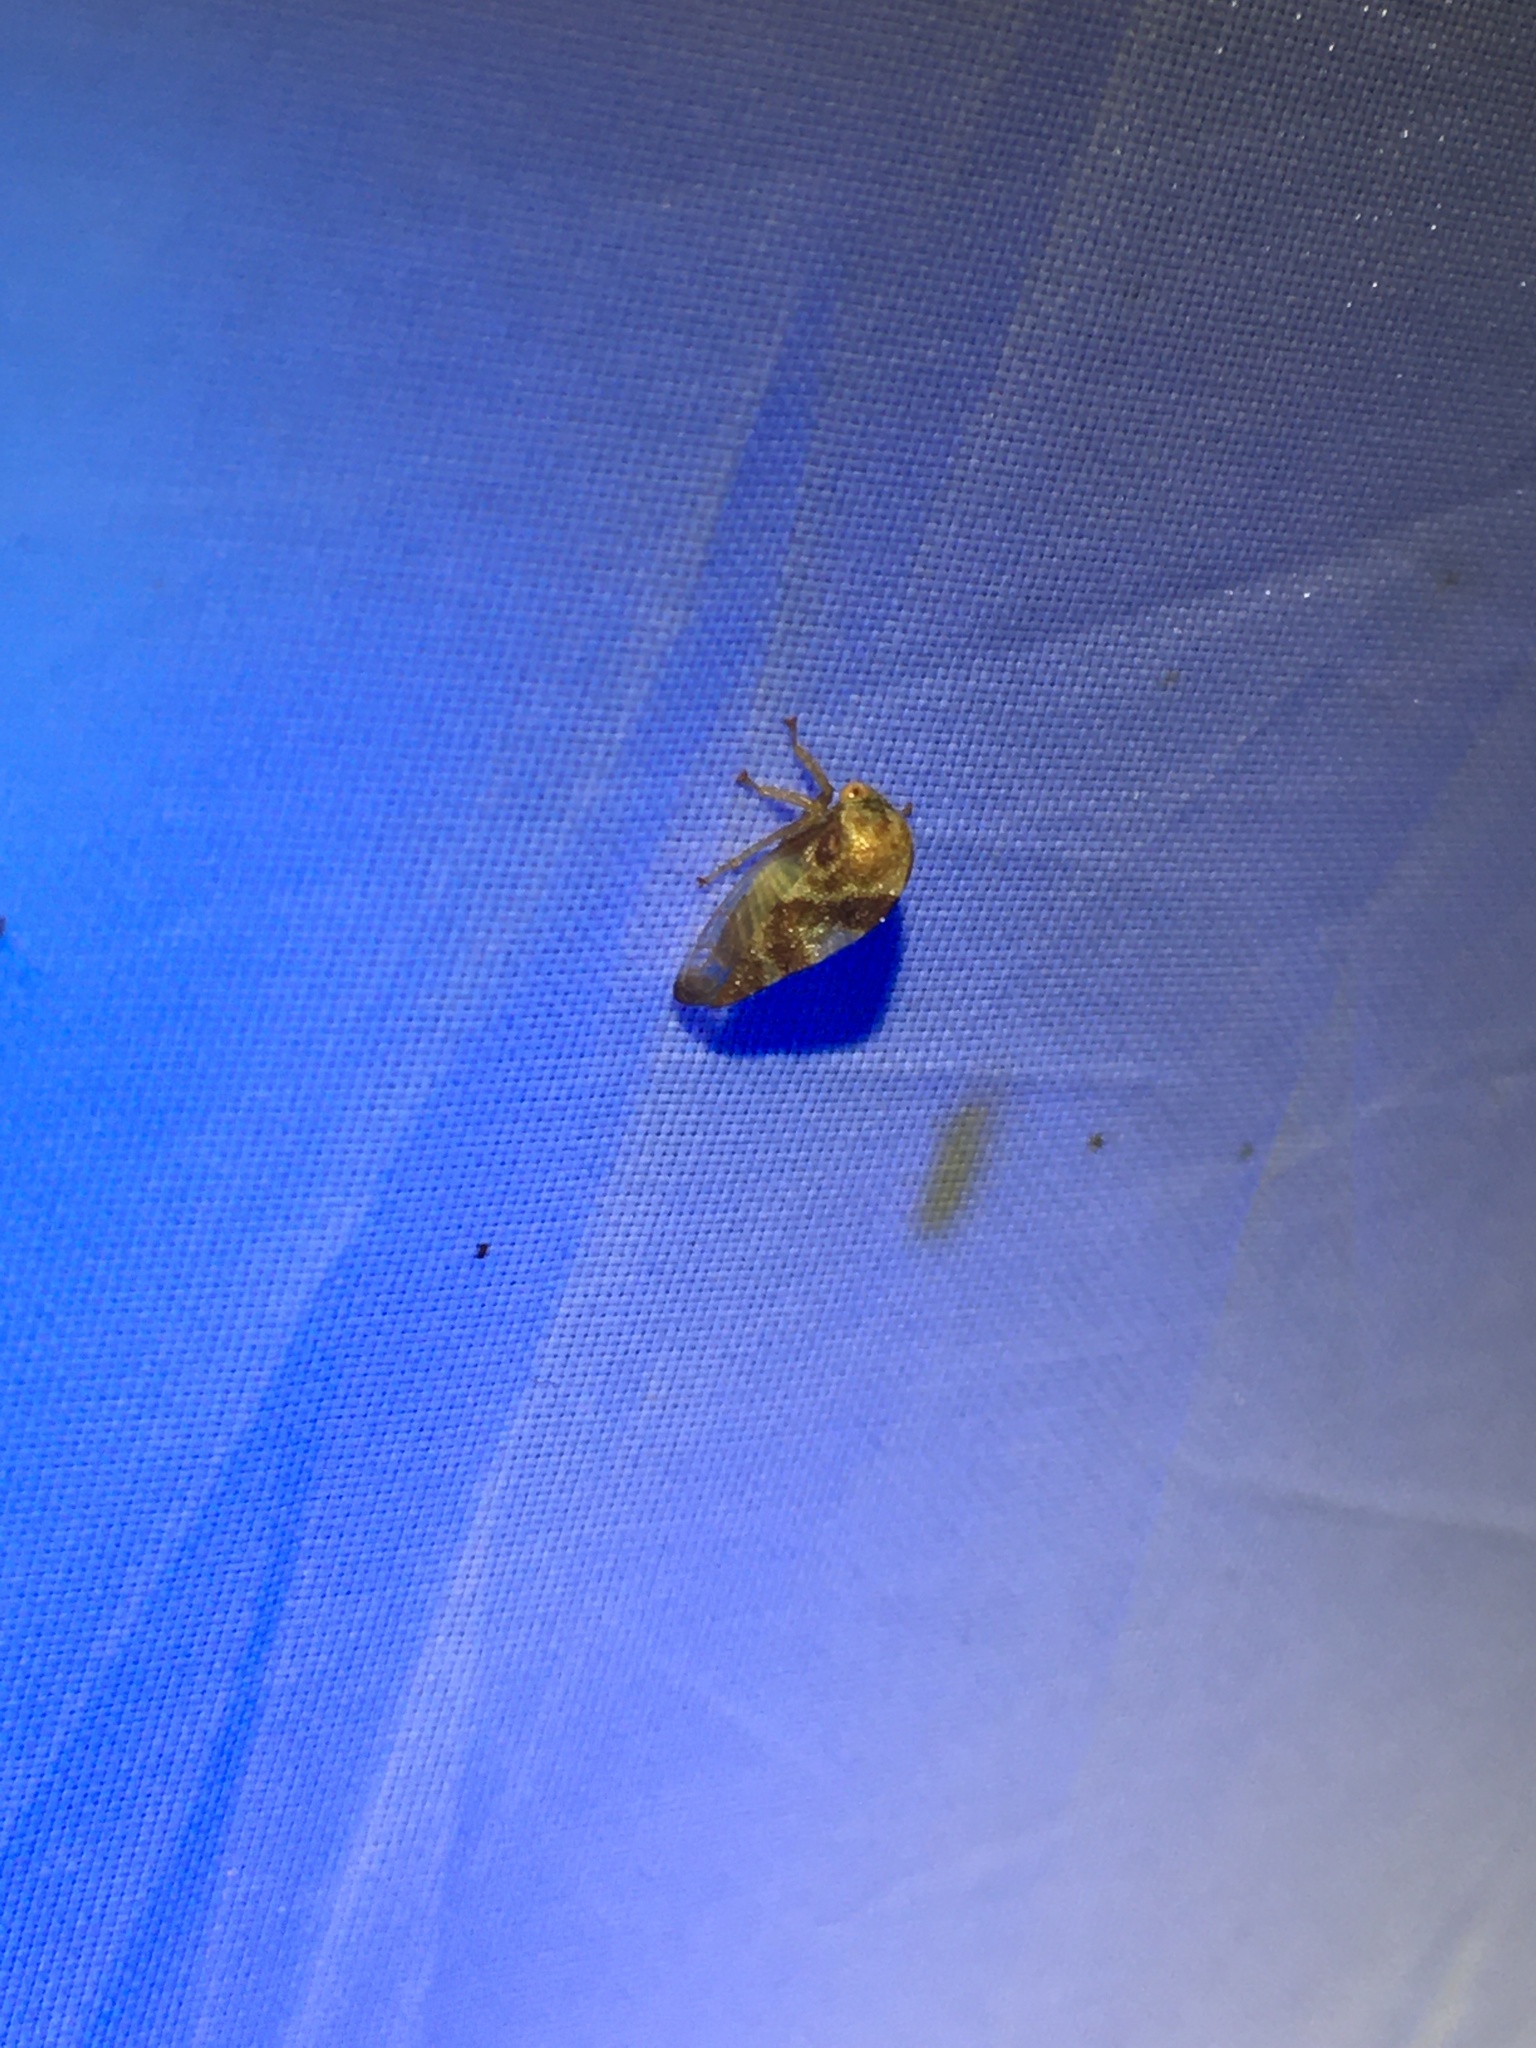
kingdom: Animalia
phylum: Arthropoda
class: Insecta
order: Hemiptera
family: Membracidae
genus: Cyrtolobus
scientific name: Cyrtolobus vau
